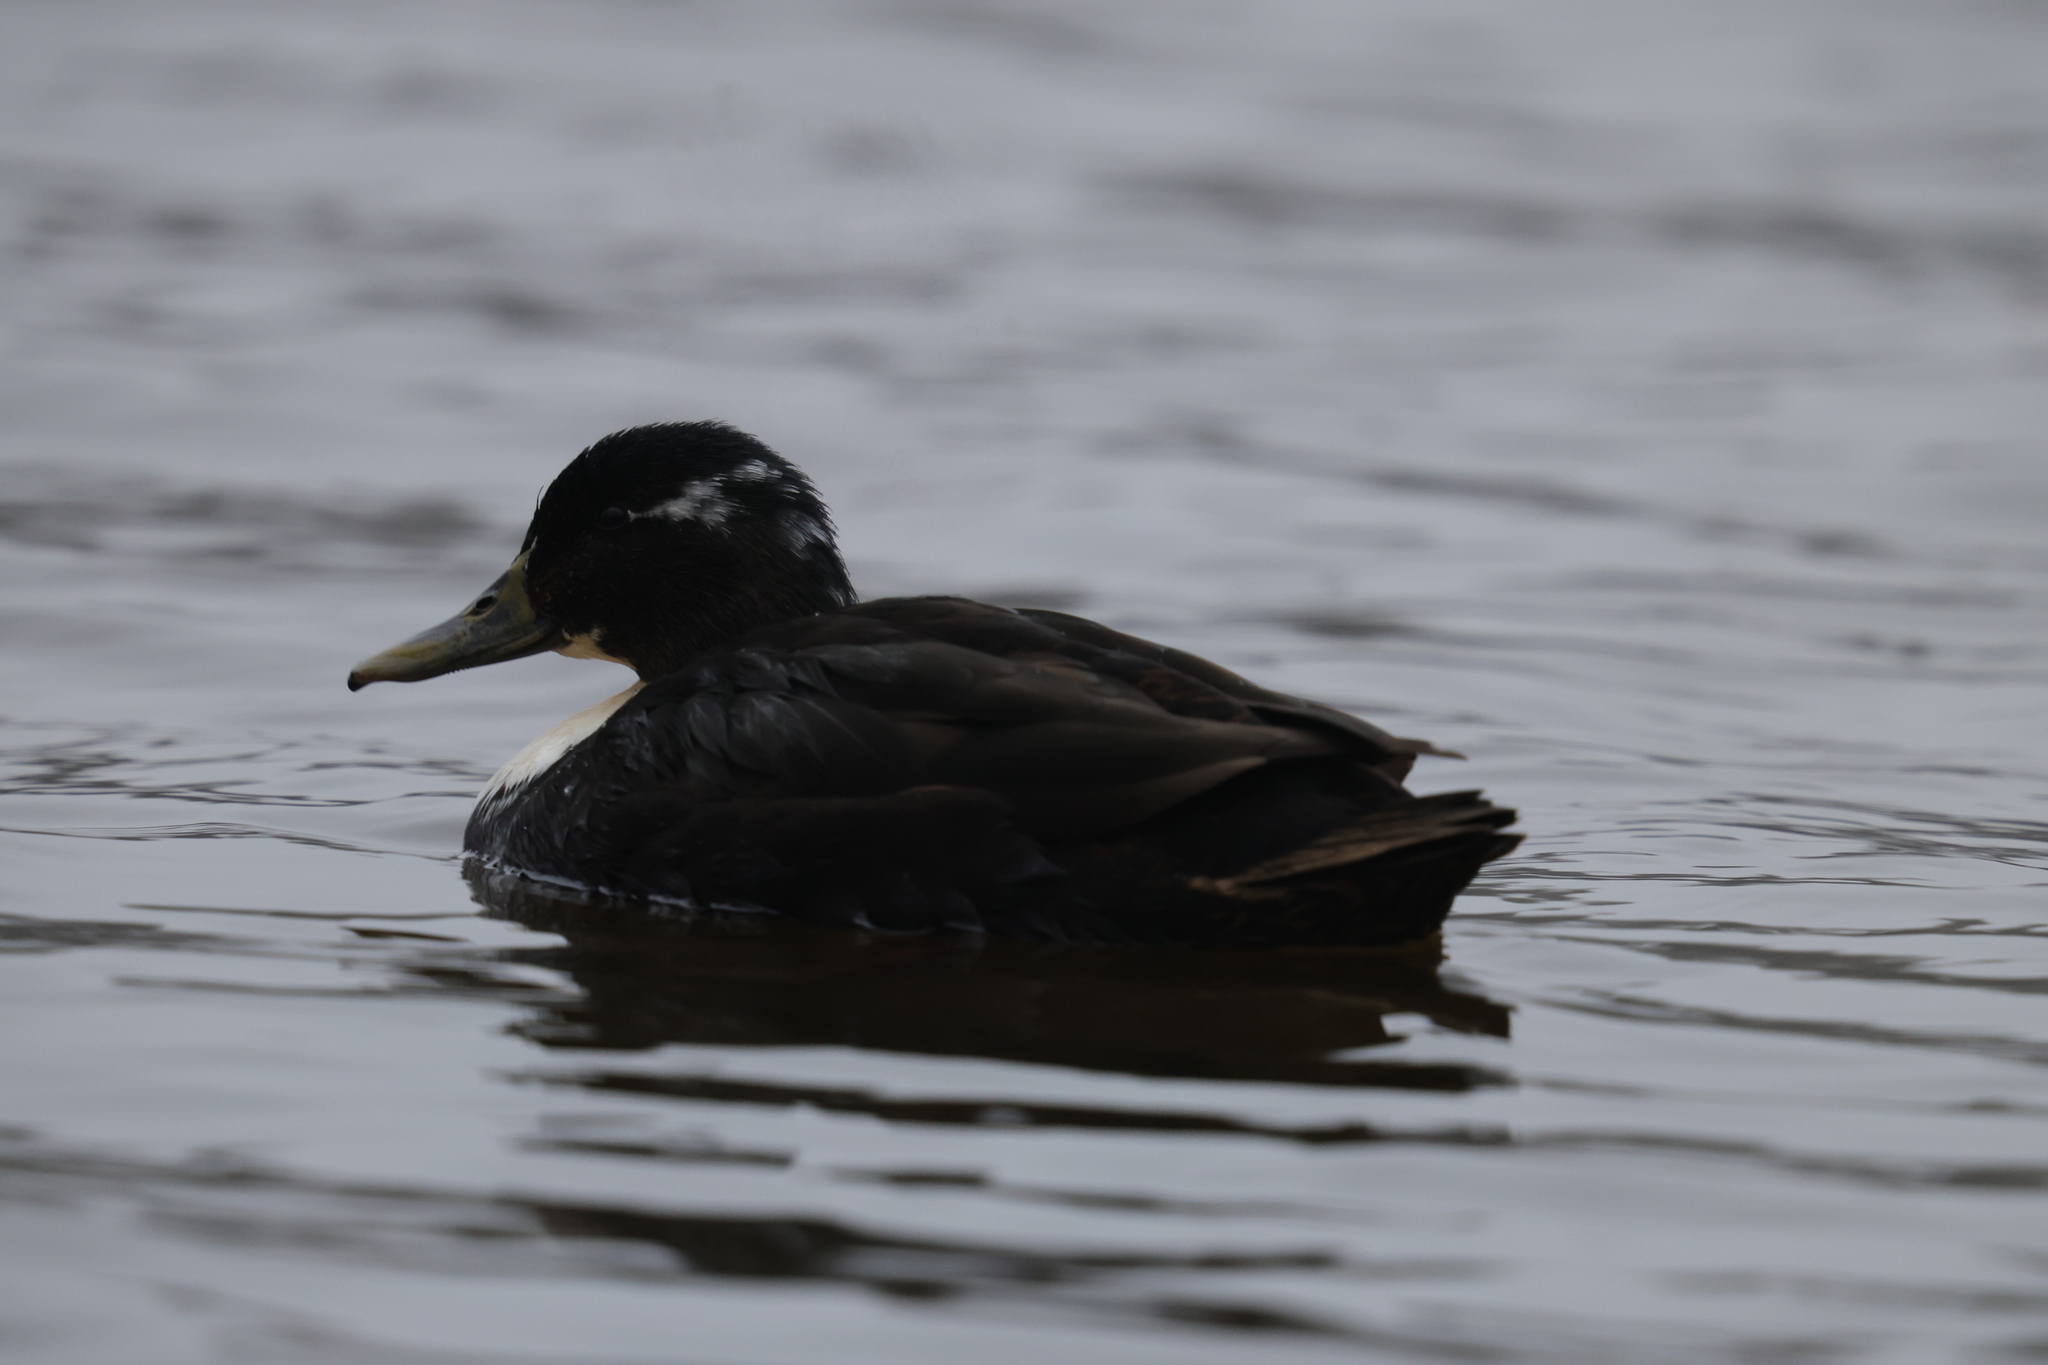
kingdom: Animalia
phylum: Chordata
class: Aves
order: Anseriformes
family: Anatidae
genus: Anas
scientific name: Anas platyrhynchos
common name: Mallard
